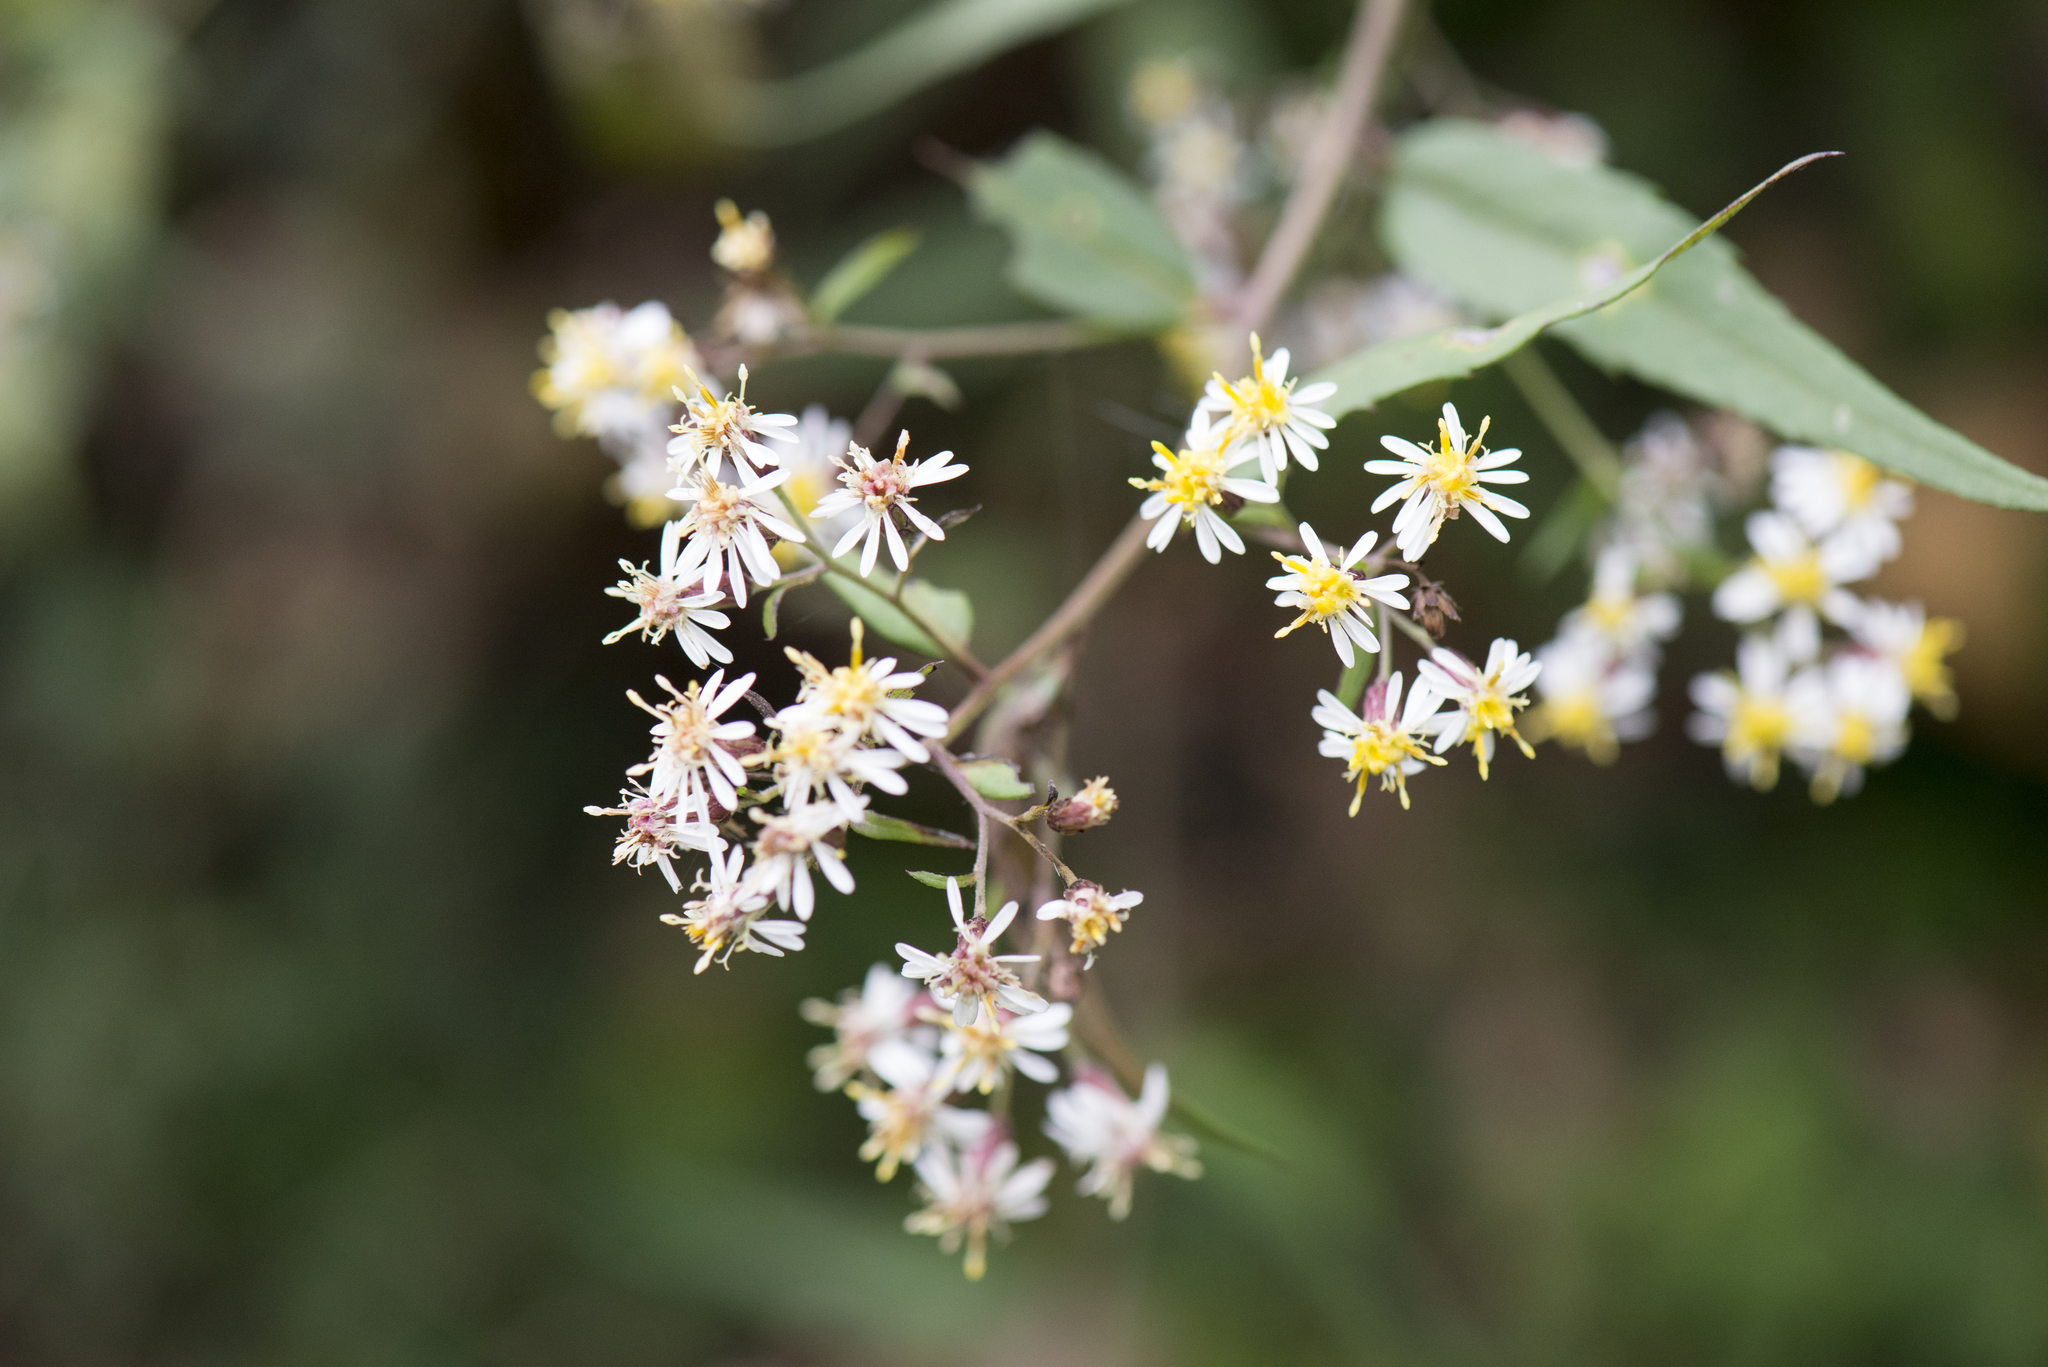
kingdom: Plantae
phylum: Tracheophyta
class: Magnoliopsida
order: Asterales
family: Asteraceae
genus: Aster
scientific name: Aster taiwanensis
